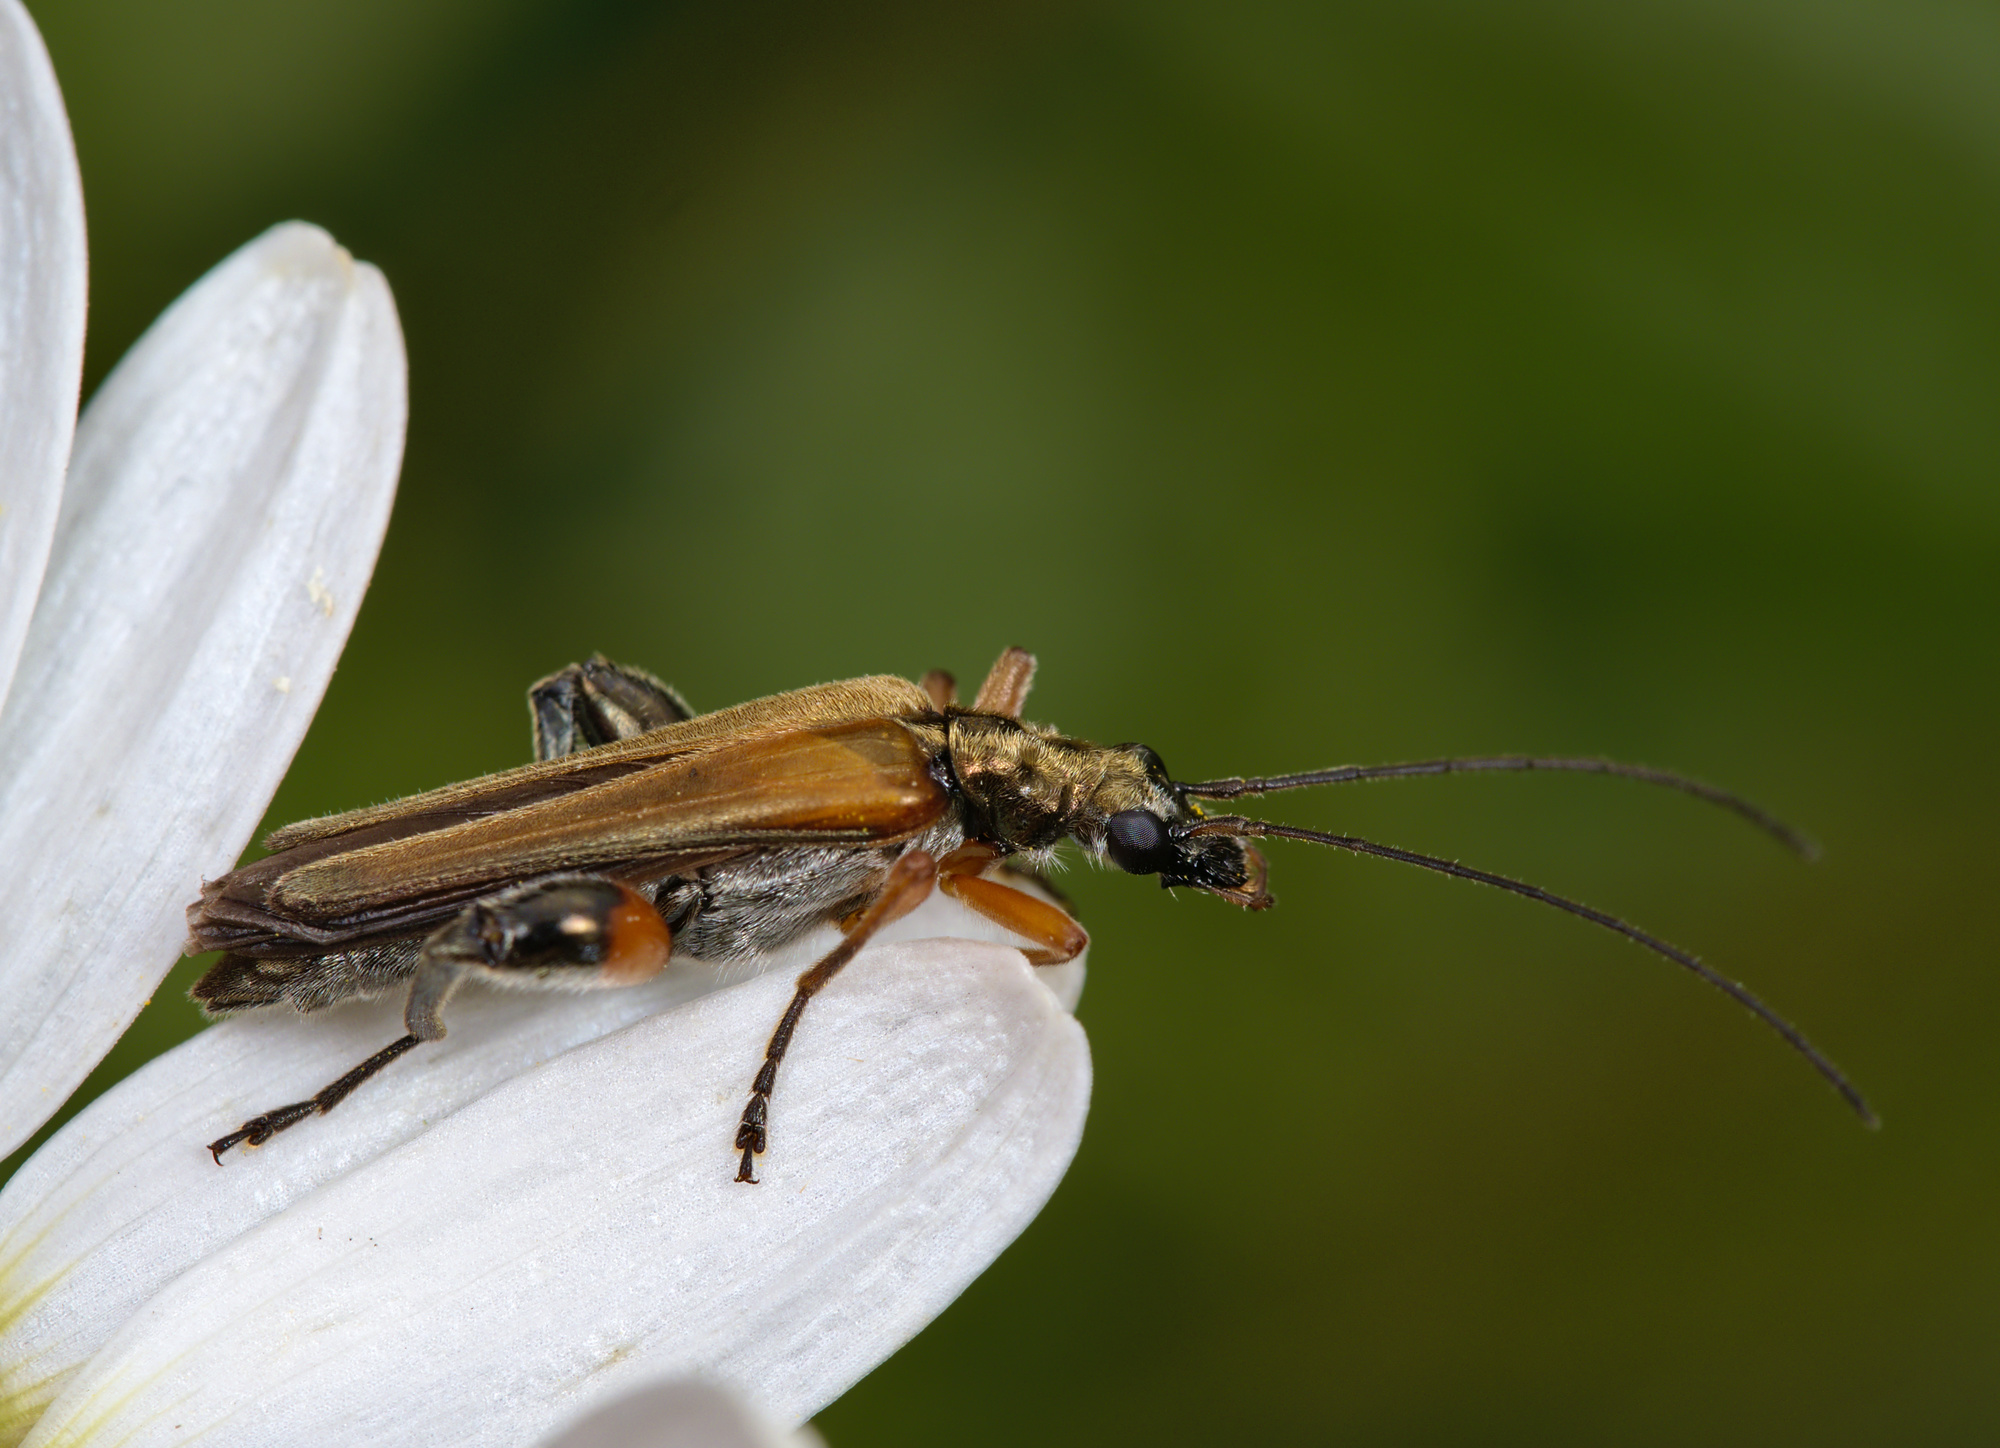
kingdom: Animalia
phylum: Arthropoda
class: Insecta
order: Coleoptera
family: Oedemeridae
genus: Oedemera
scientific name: Oedemera podagrariae
